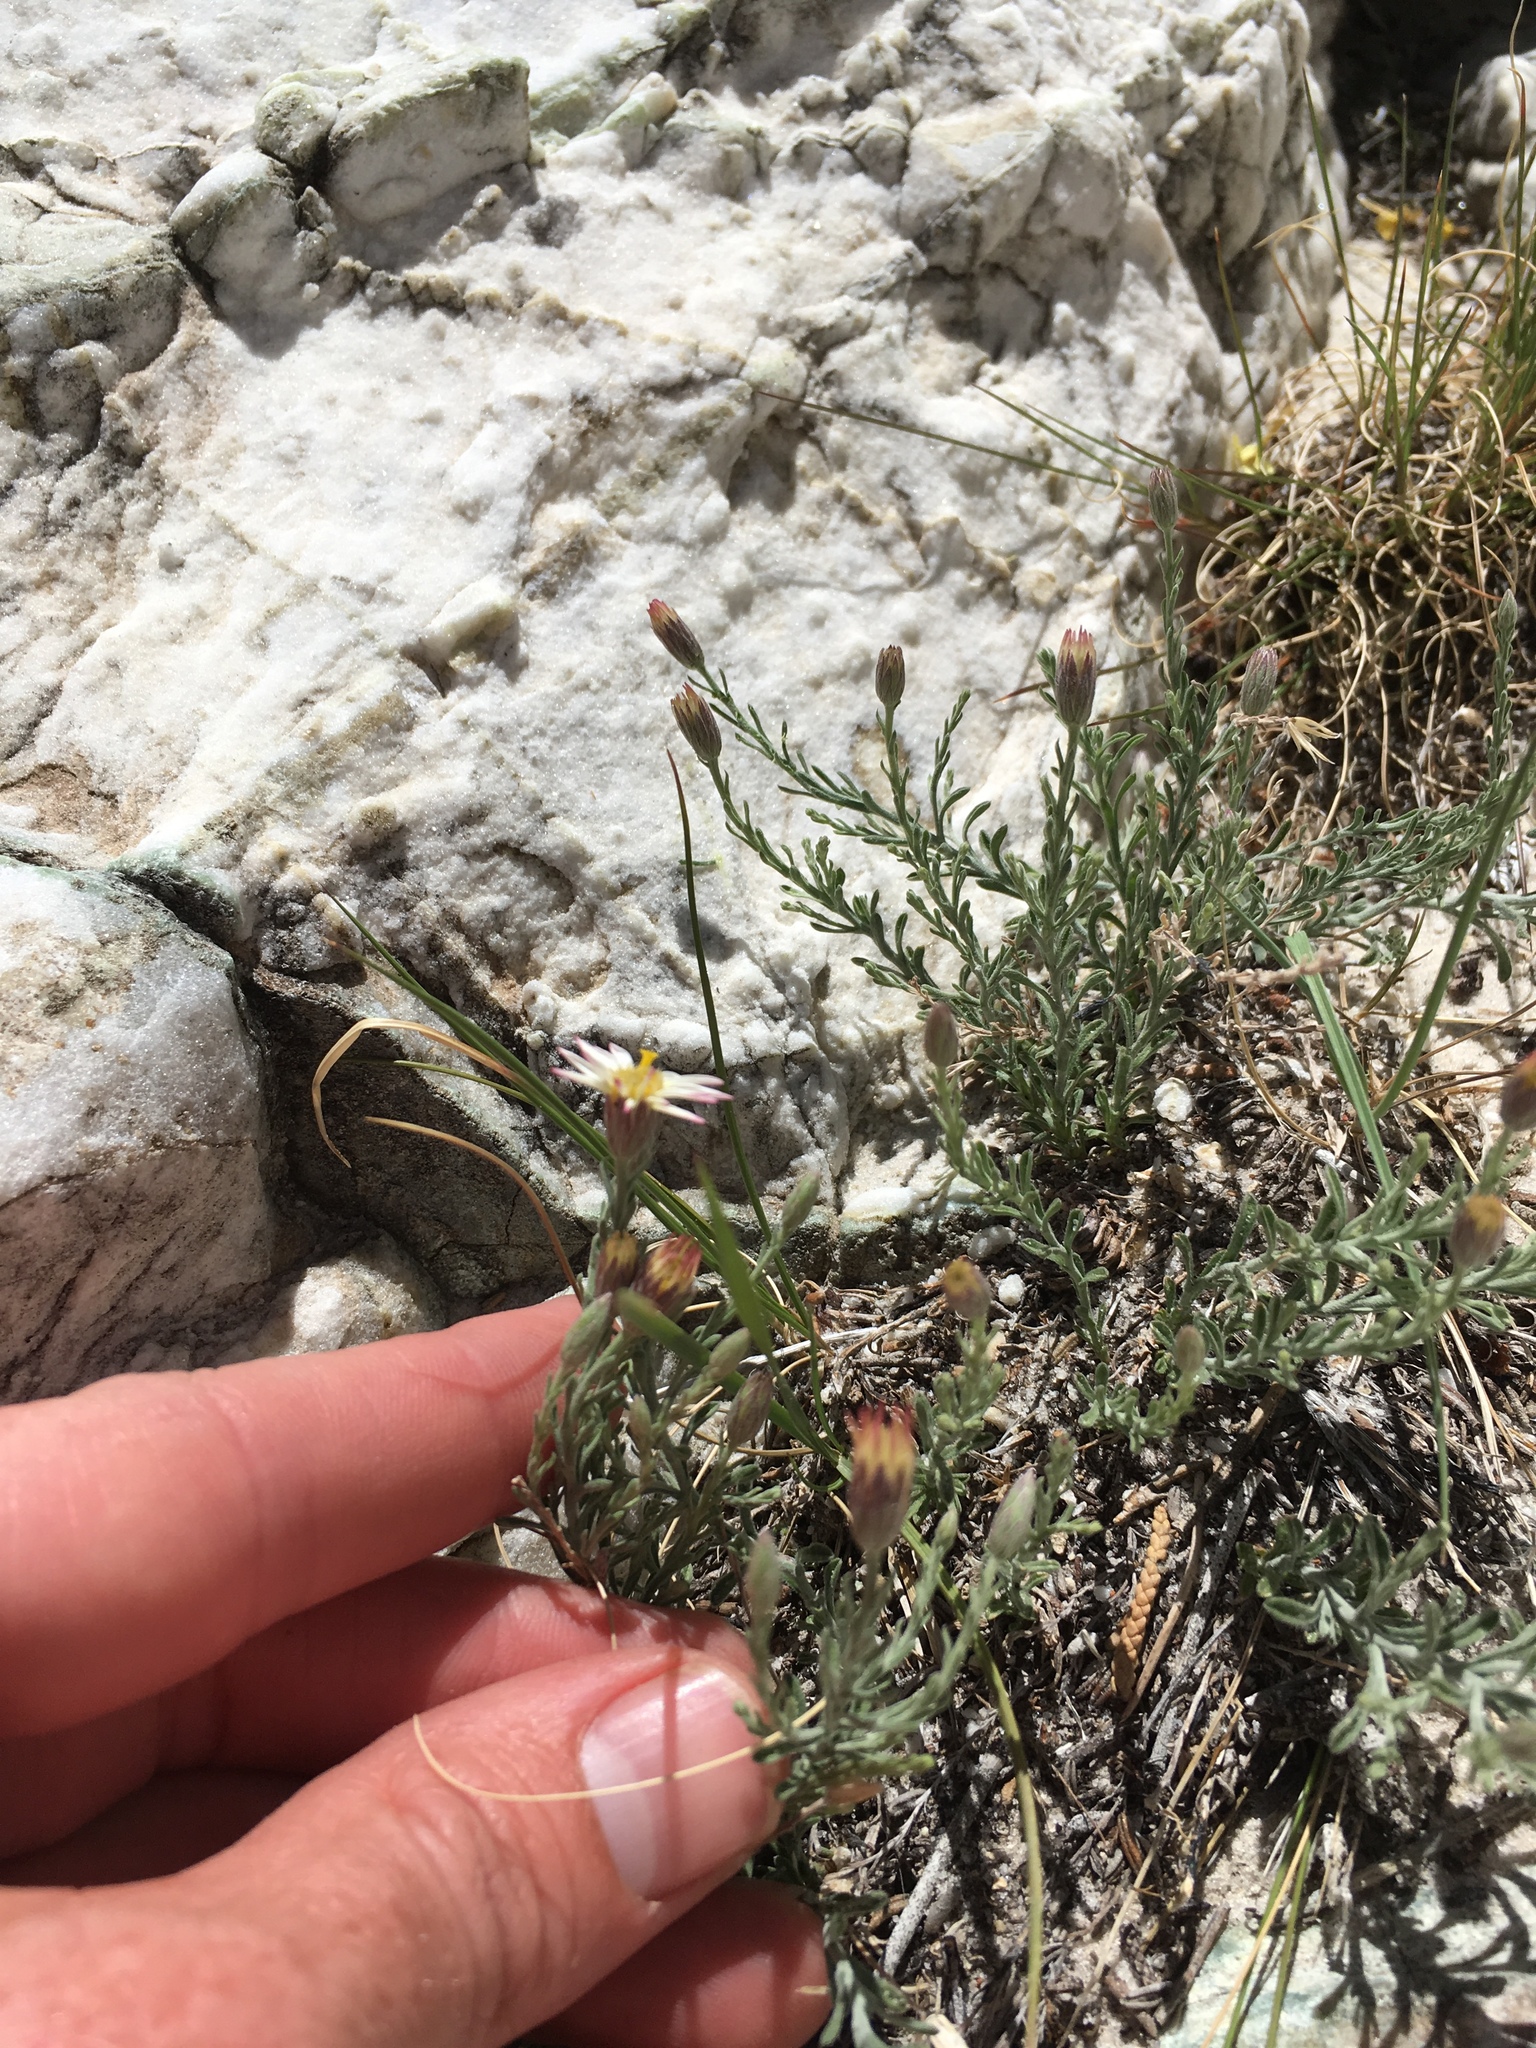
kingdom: Plantae
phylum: Tracheophyta
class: Magnoliopsida
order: Asterales
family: Asteraceae
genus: Chaetopappa
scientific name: Chaetopappa ericoides
